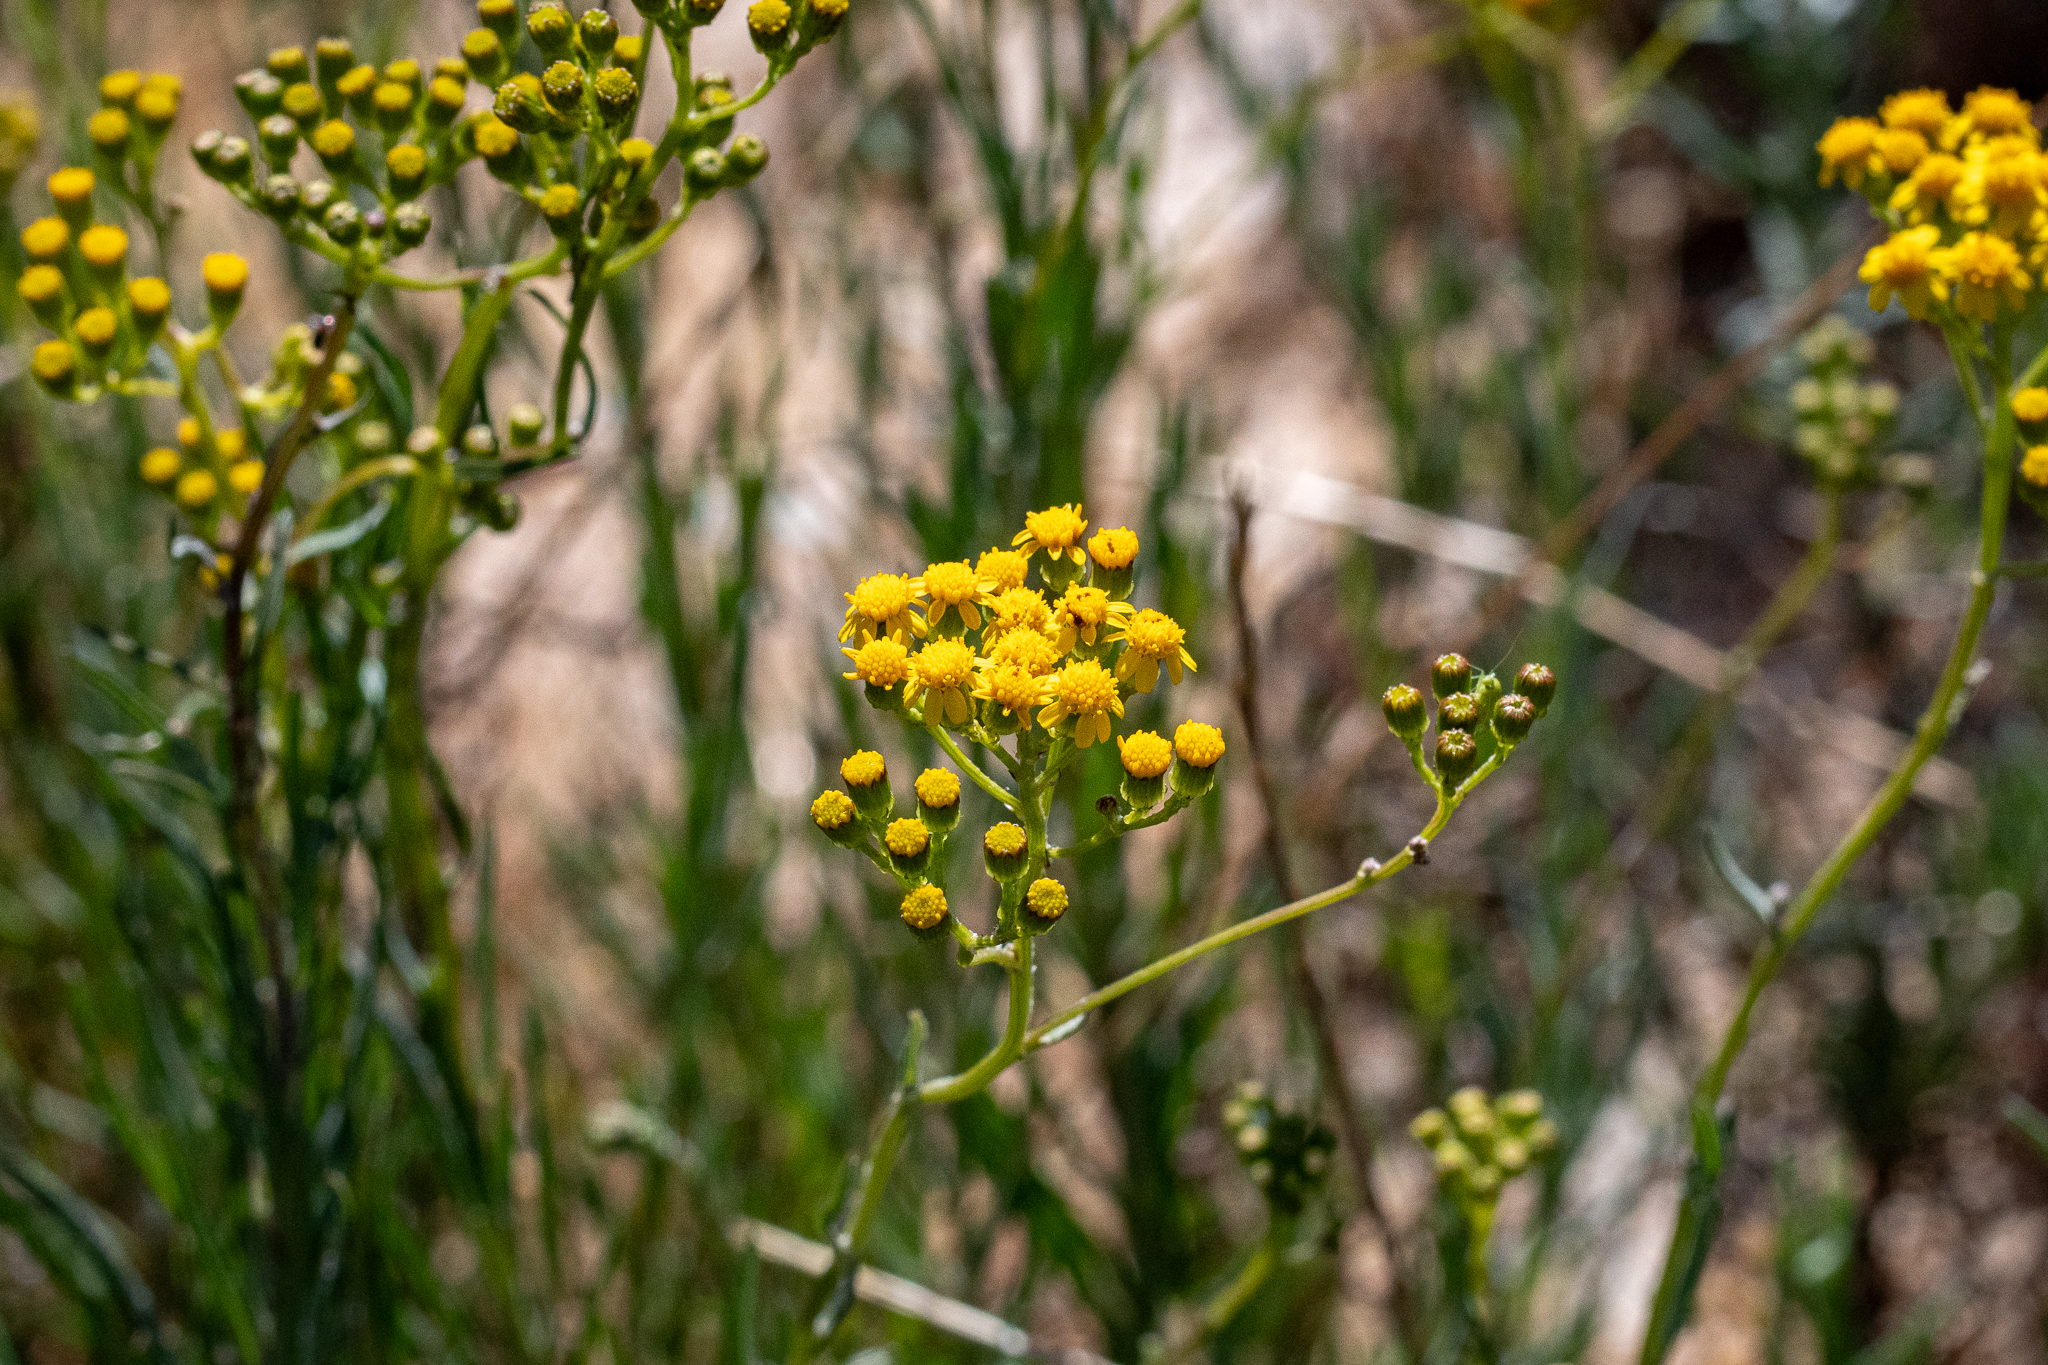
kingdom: Plantae
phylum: Tracheophyta
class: Magnoliopsida
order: Asterales
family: Asteraceae
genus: Senecio
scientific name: Senecio burchellii
